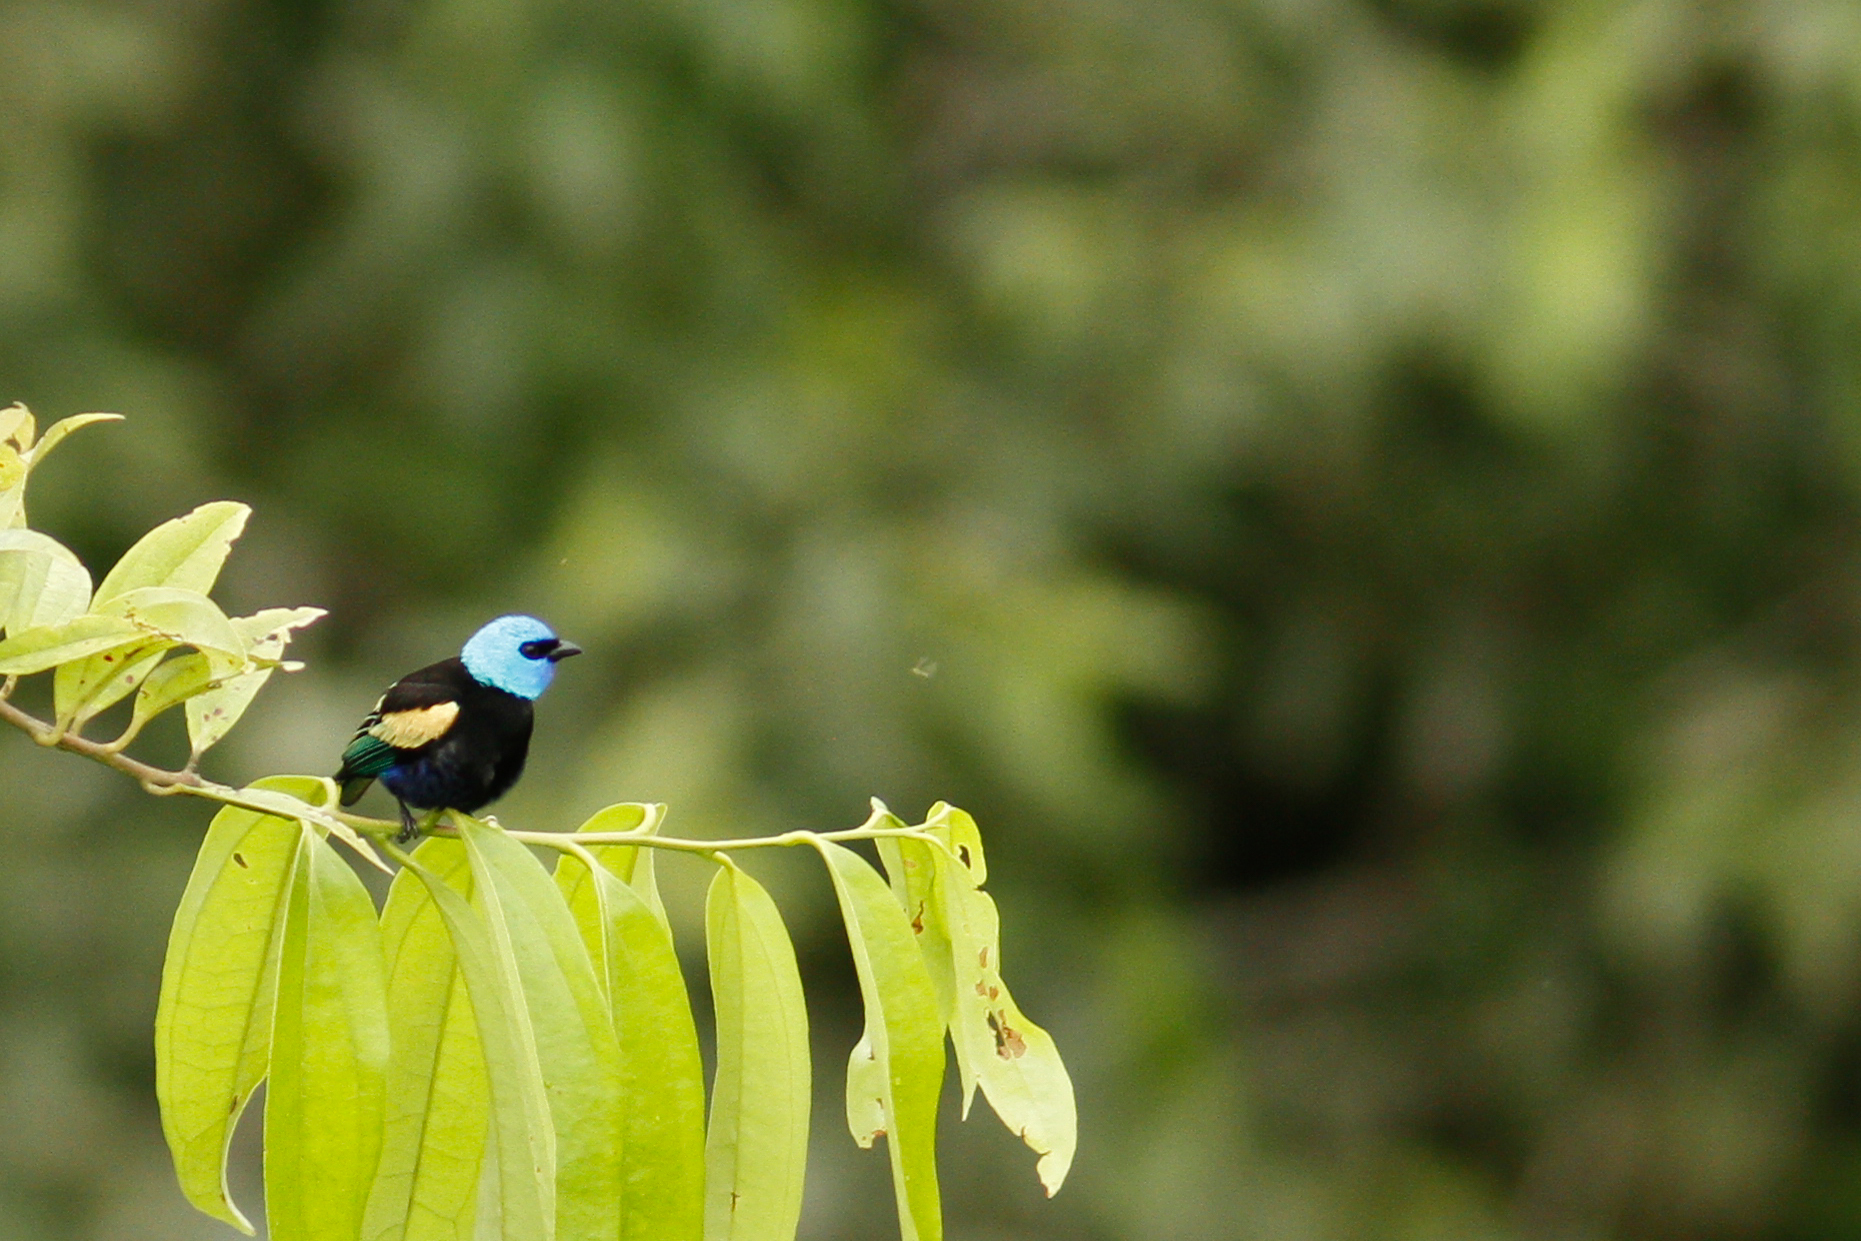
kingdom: Animalia
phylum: Chordata
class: Aves
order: Passeriformes
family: Thraupidae
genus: Stilpnia
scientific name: Stilpnia cyanicollis
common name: Blue-necked tanager
